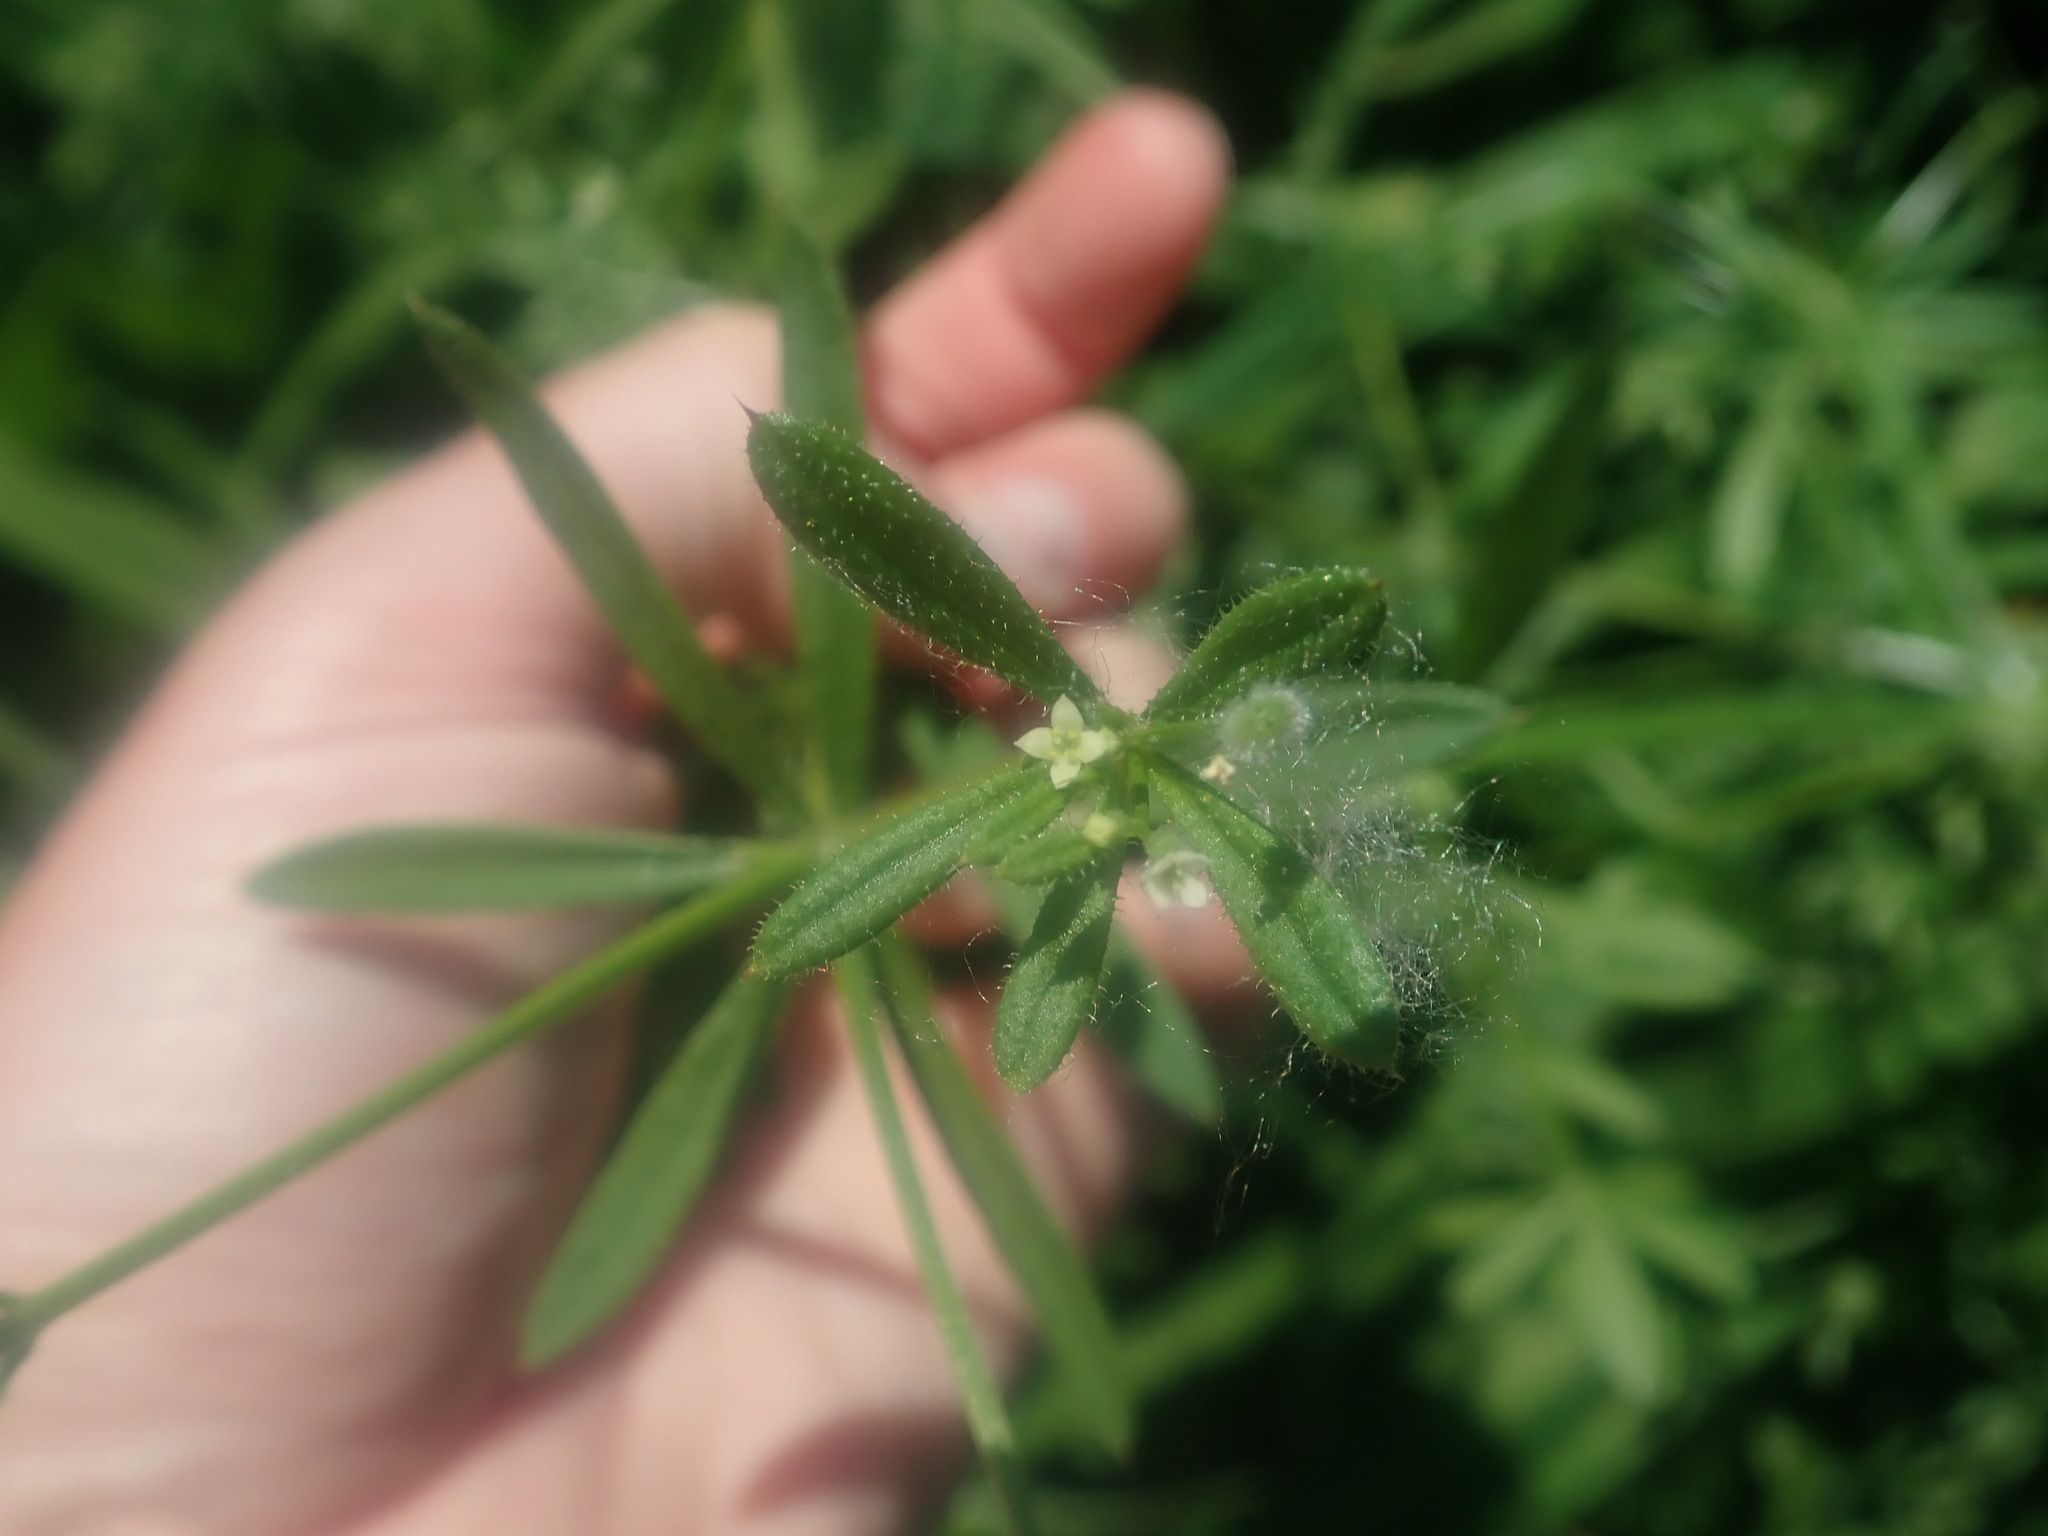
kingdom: Plantae
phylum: Tracheophyta
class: Magnoliopsida
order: Gentianales
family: Rubiaceae
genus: Galium
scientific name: Galium aparine
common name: Cleavers
